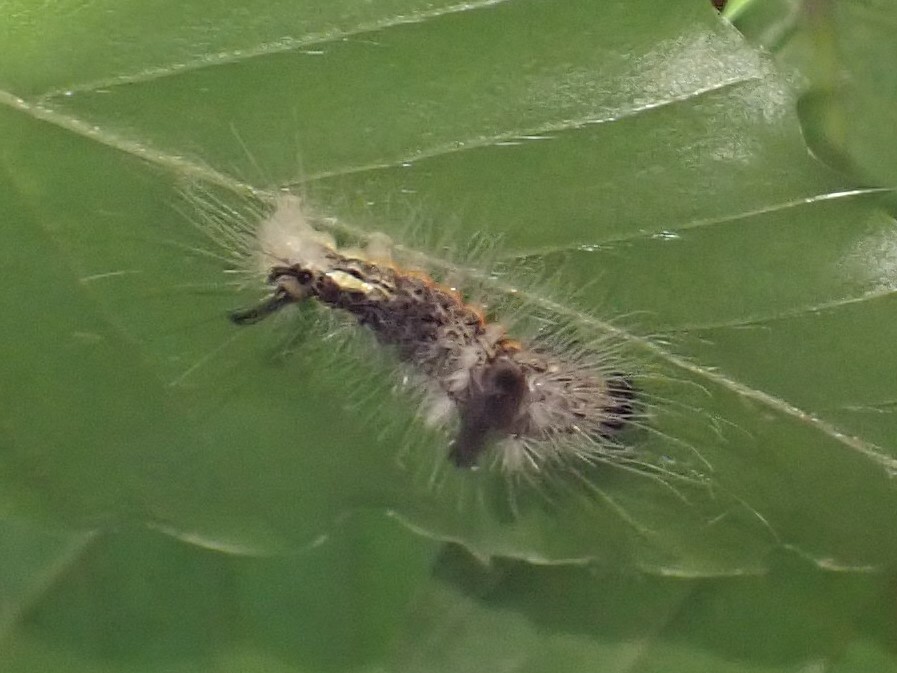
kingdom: Animalia
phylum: Arthropoda
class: Insecta
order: Lepidoptera
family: Noctuidae
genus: Acronicta
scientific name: Acronicta impleta
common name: Powdered dagger
